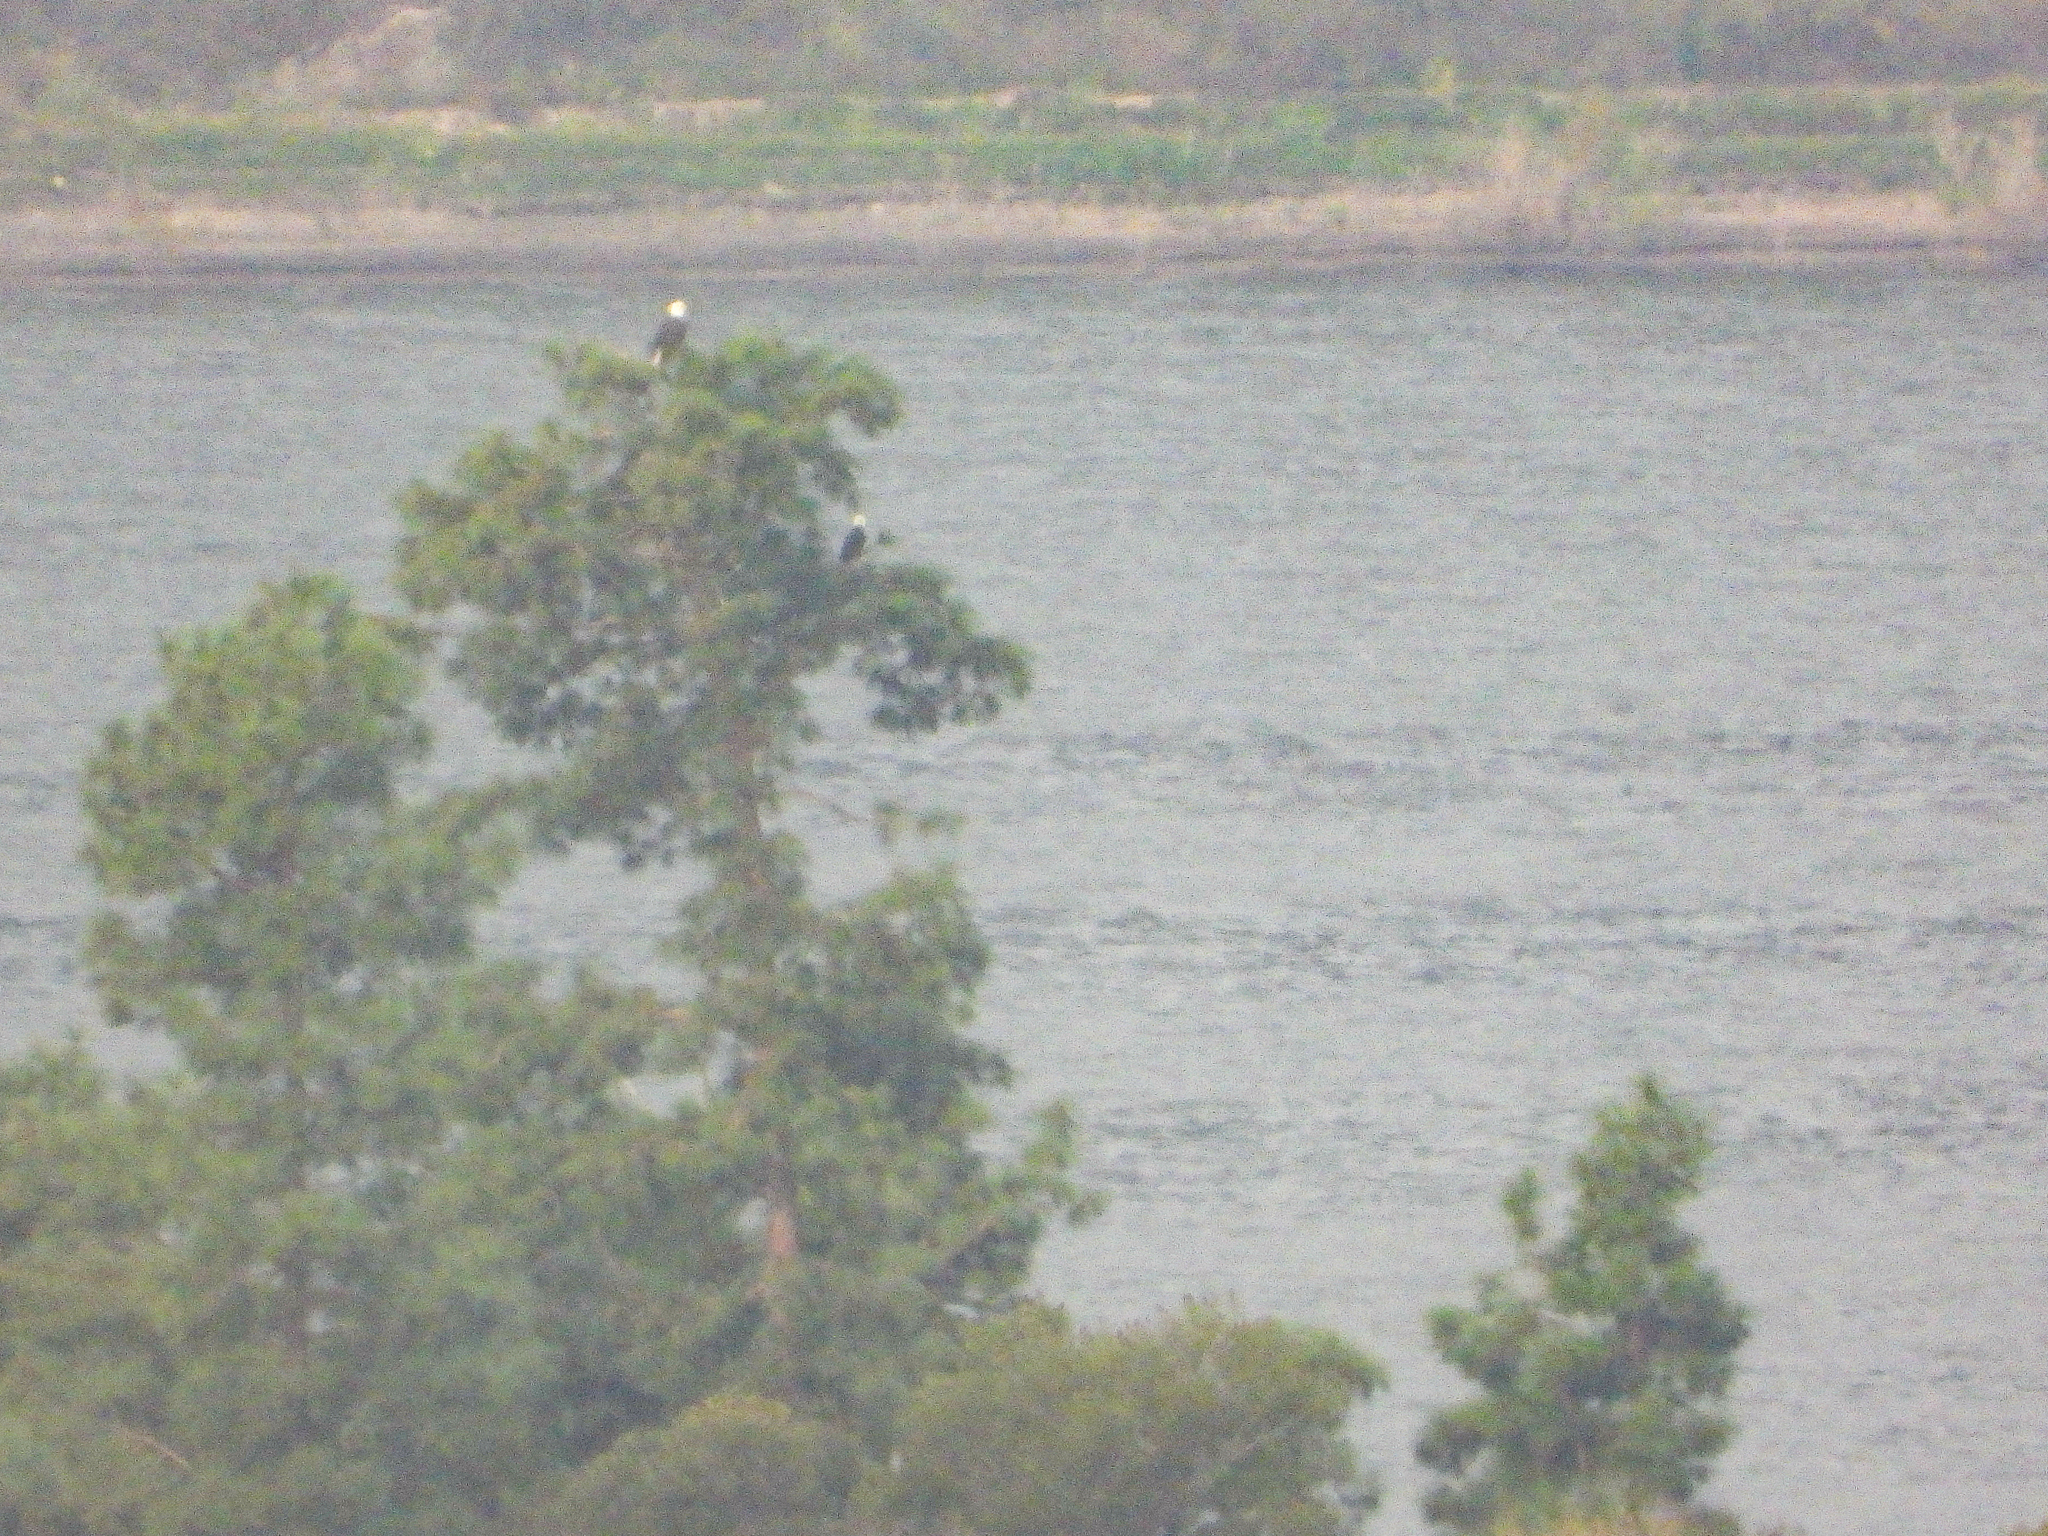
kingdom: Animalia
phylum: Chordata
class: Aves
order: Accipitriformes
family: Accipitridae
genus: Haliaeetus
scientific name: Haliaeetus leucocephalus
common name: Bald eagle
